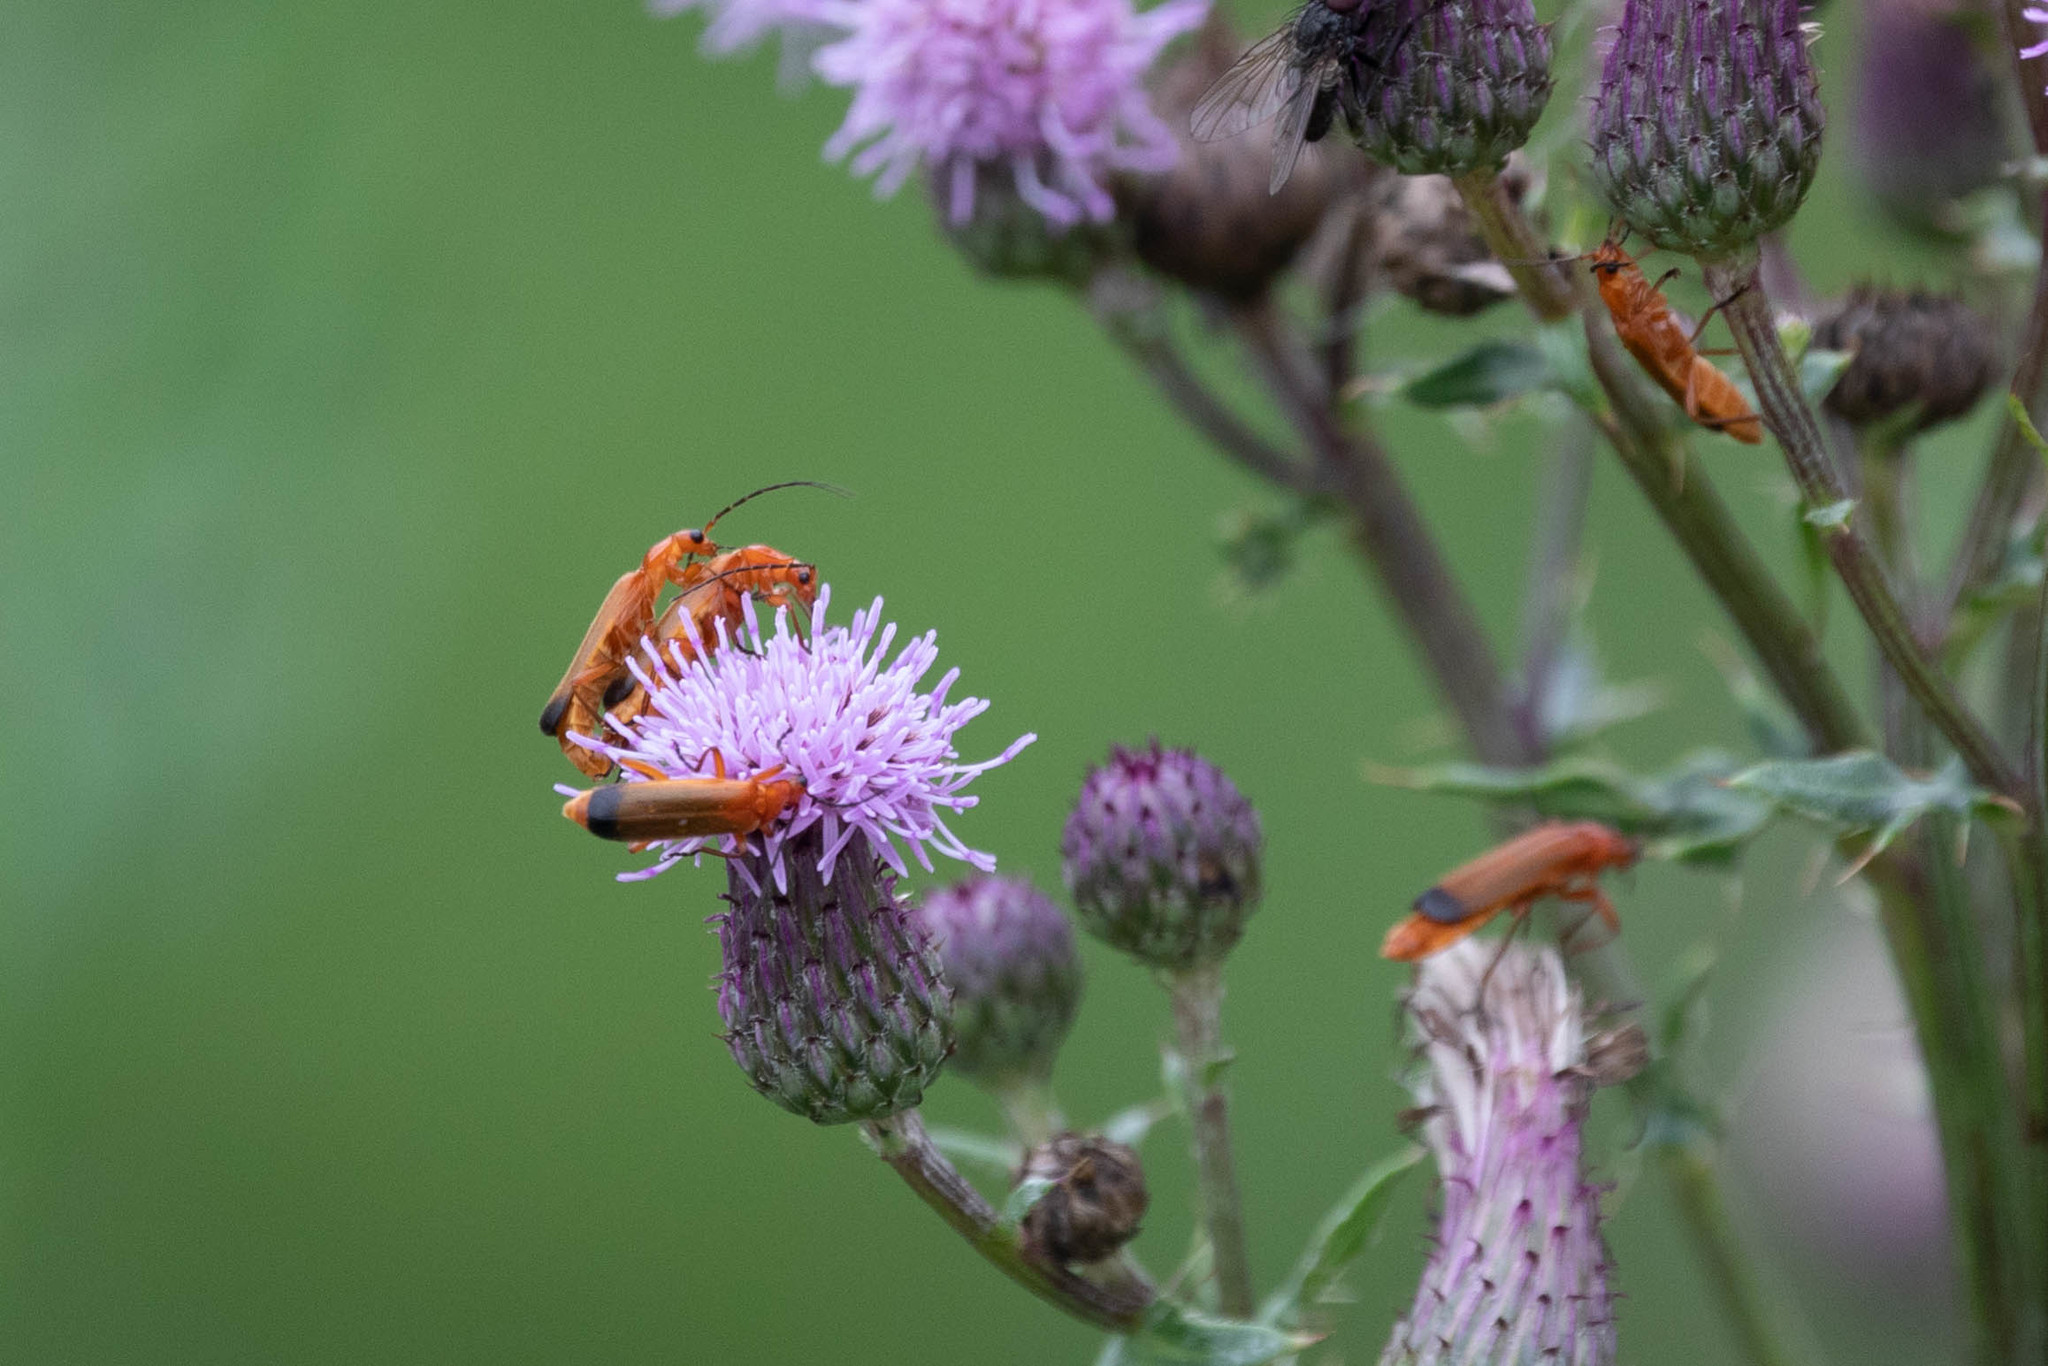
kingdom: Animalia
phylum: Arthropoda
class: Insecta
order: Coleoptera
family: Cantharidae
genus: Rhagonycha
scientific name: Rhagonycha fulva
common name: Common red soldier beetle
